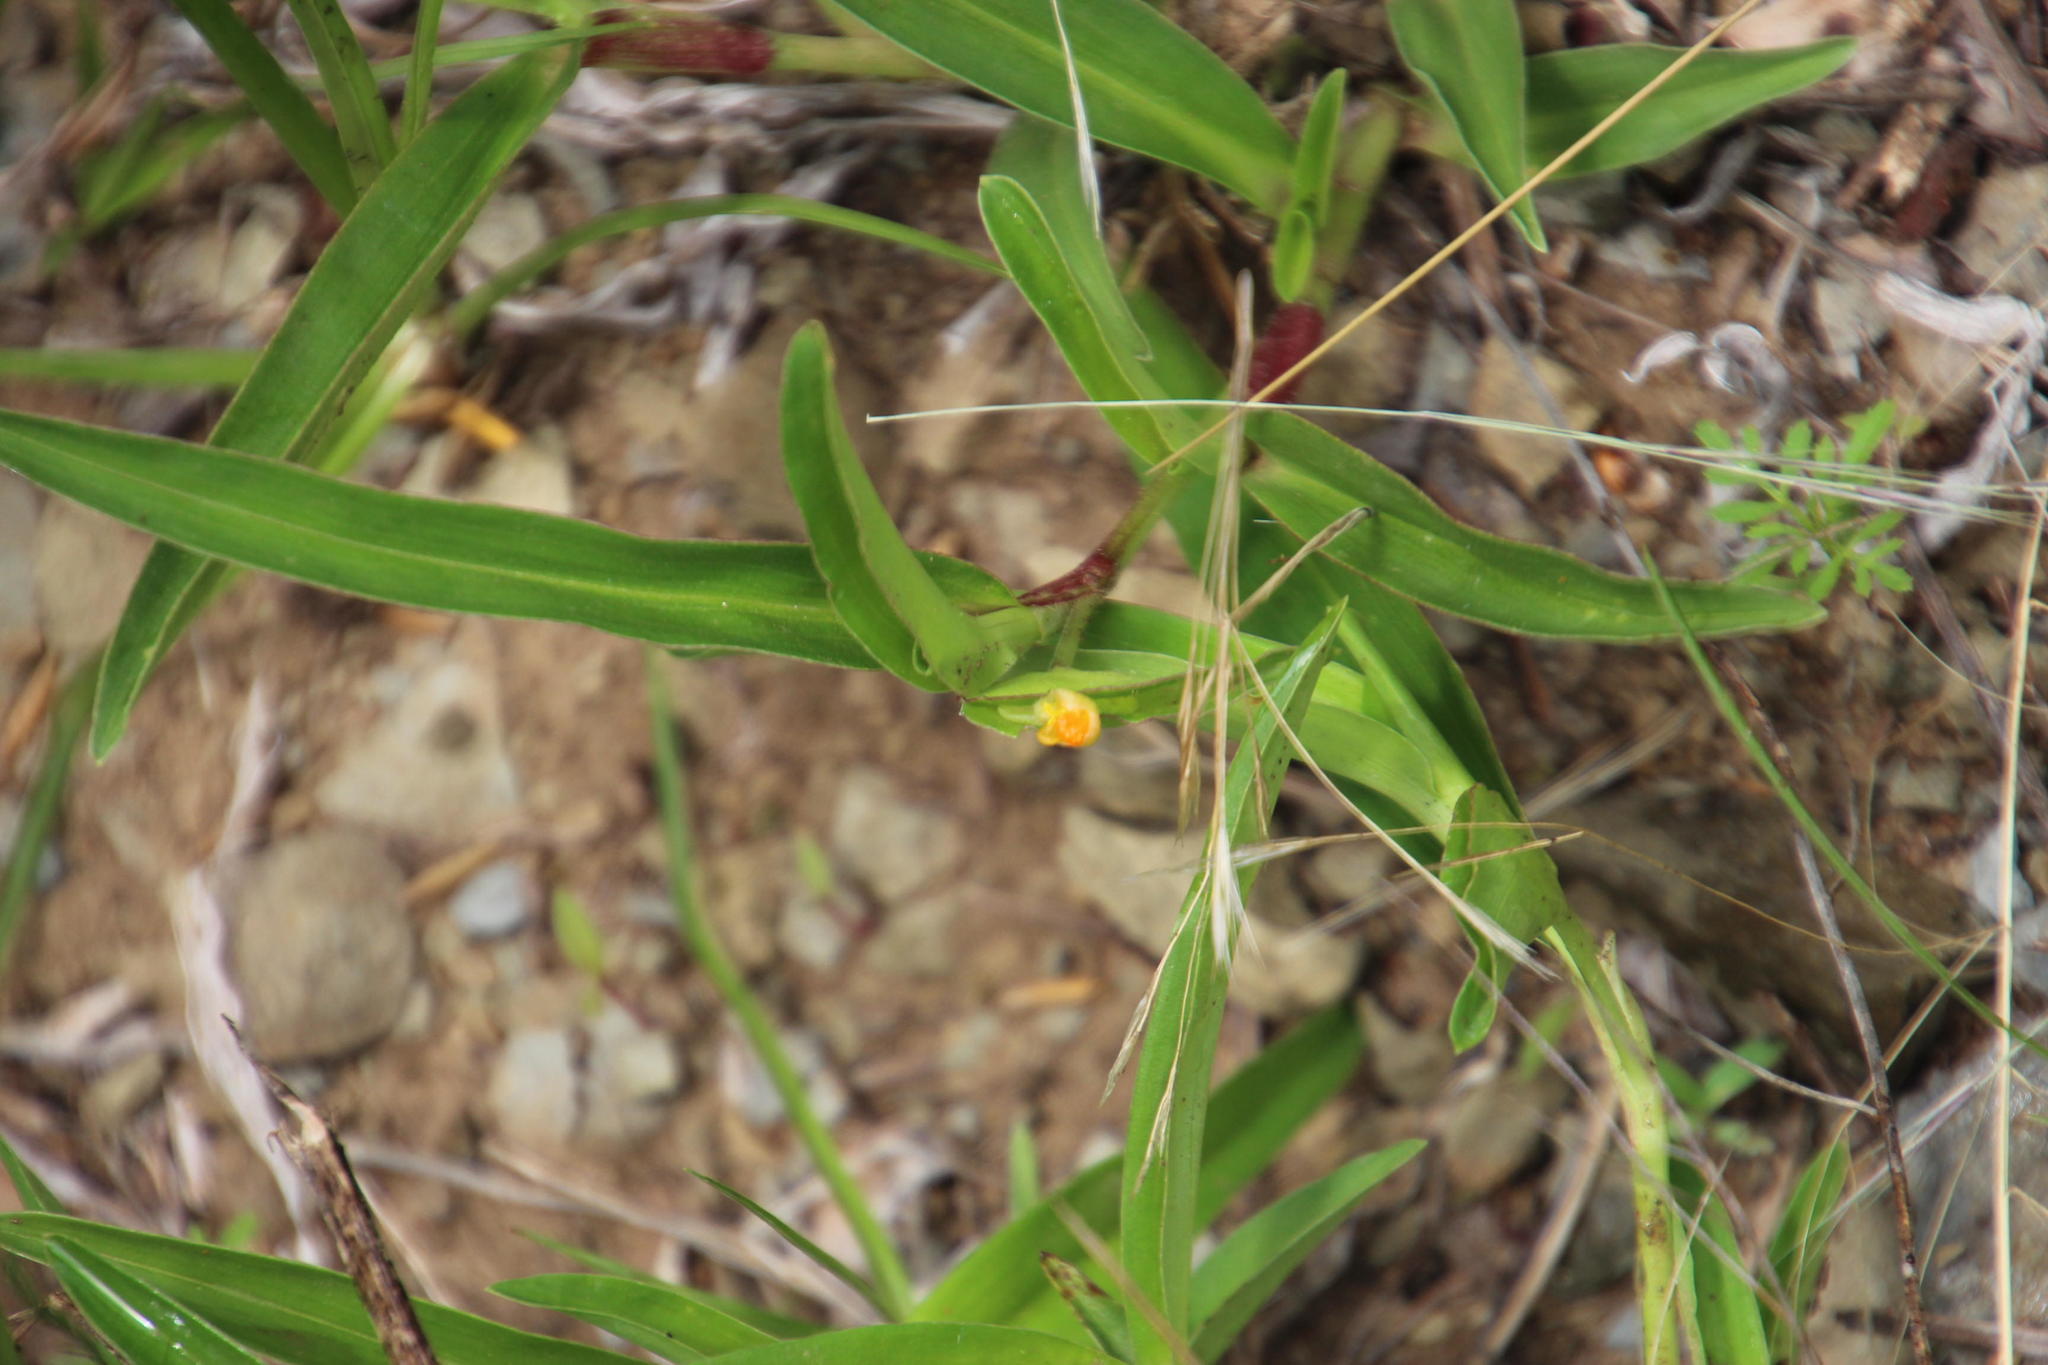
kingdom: Plantae
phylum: Tracheophyta
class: Liliopsida
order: Commelinales
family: Commelinaceae
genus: Commelina
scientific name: Commelina africana
